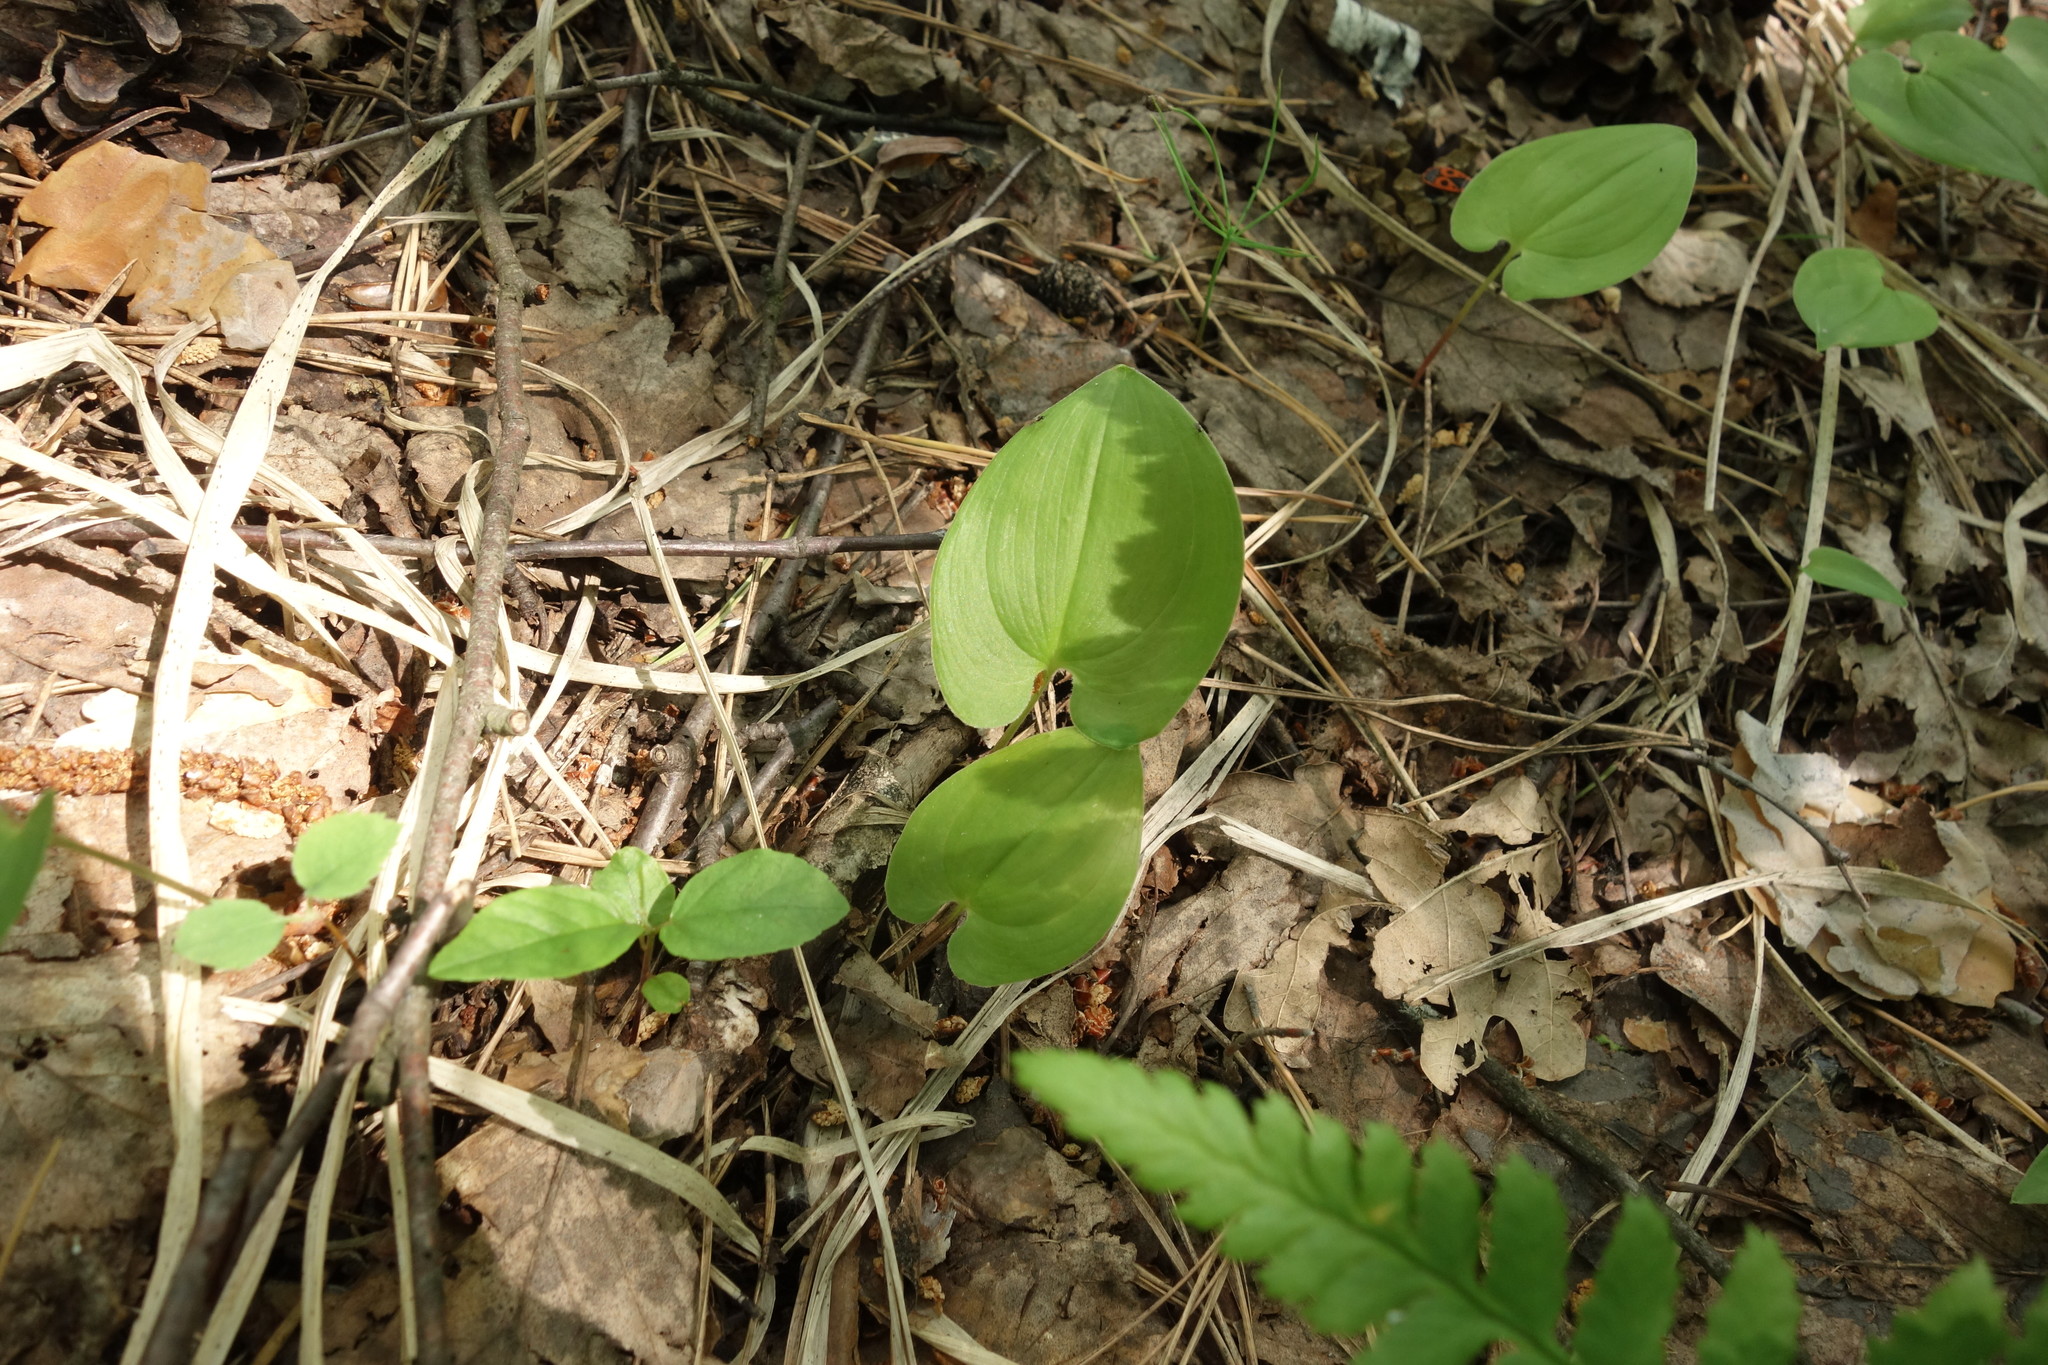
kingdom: Plantae
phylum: Tracheophyta
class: Liliopsida
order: Asparagales
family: Asparagaceae
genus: Maianthemum
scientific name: Maianthemum bifolium
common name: May lily
